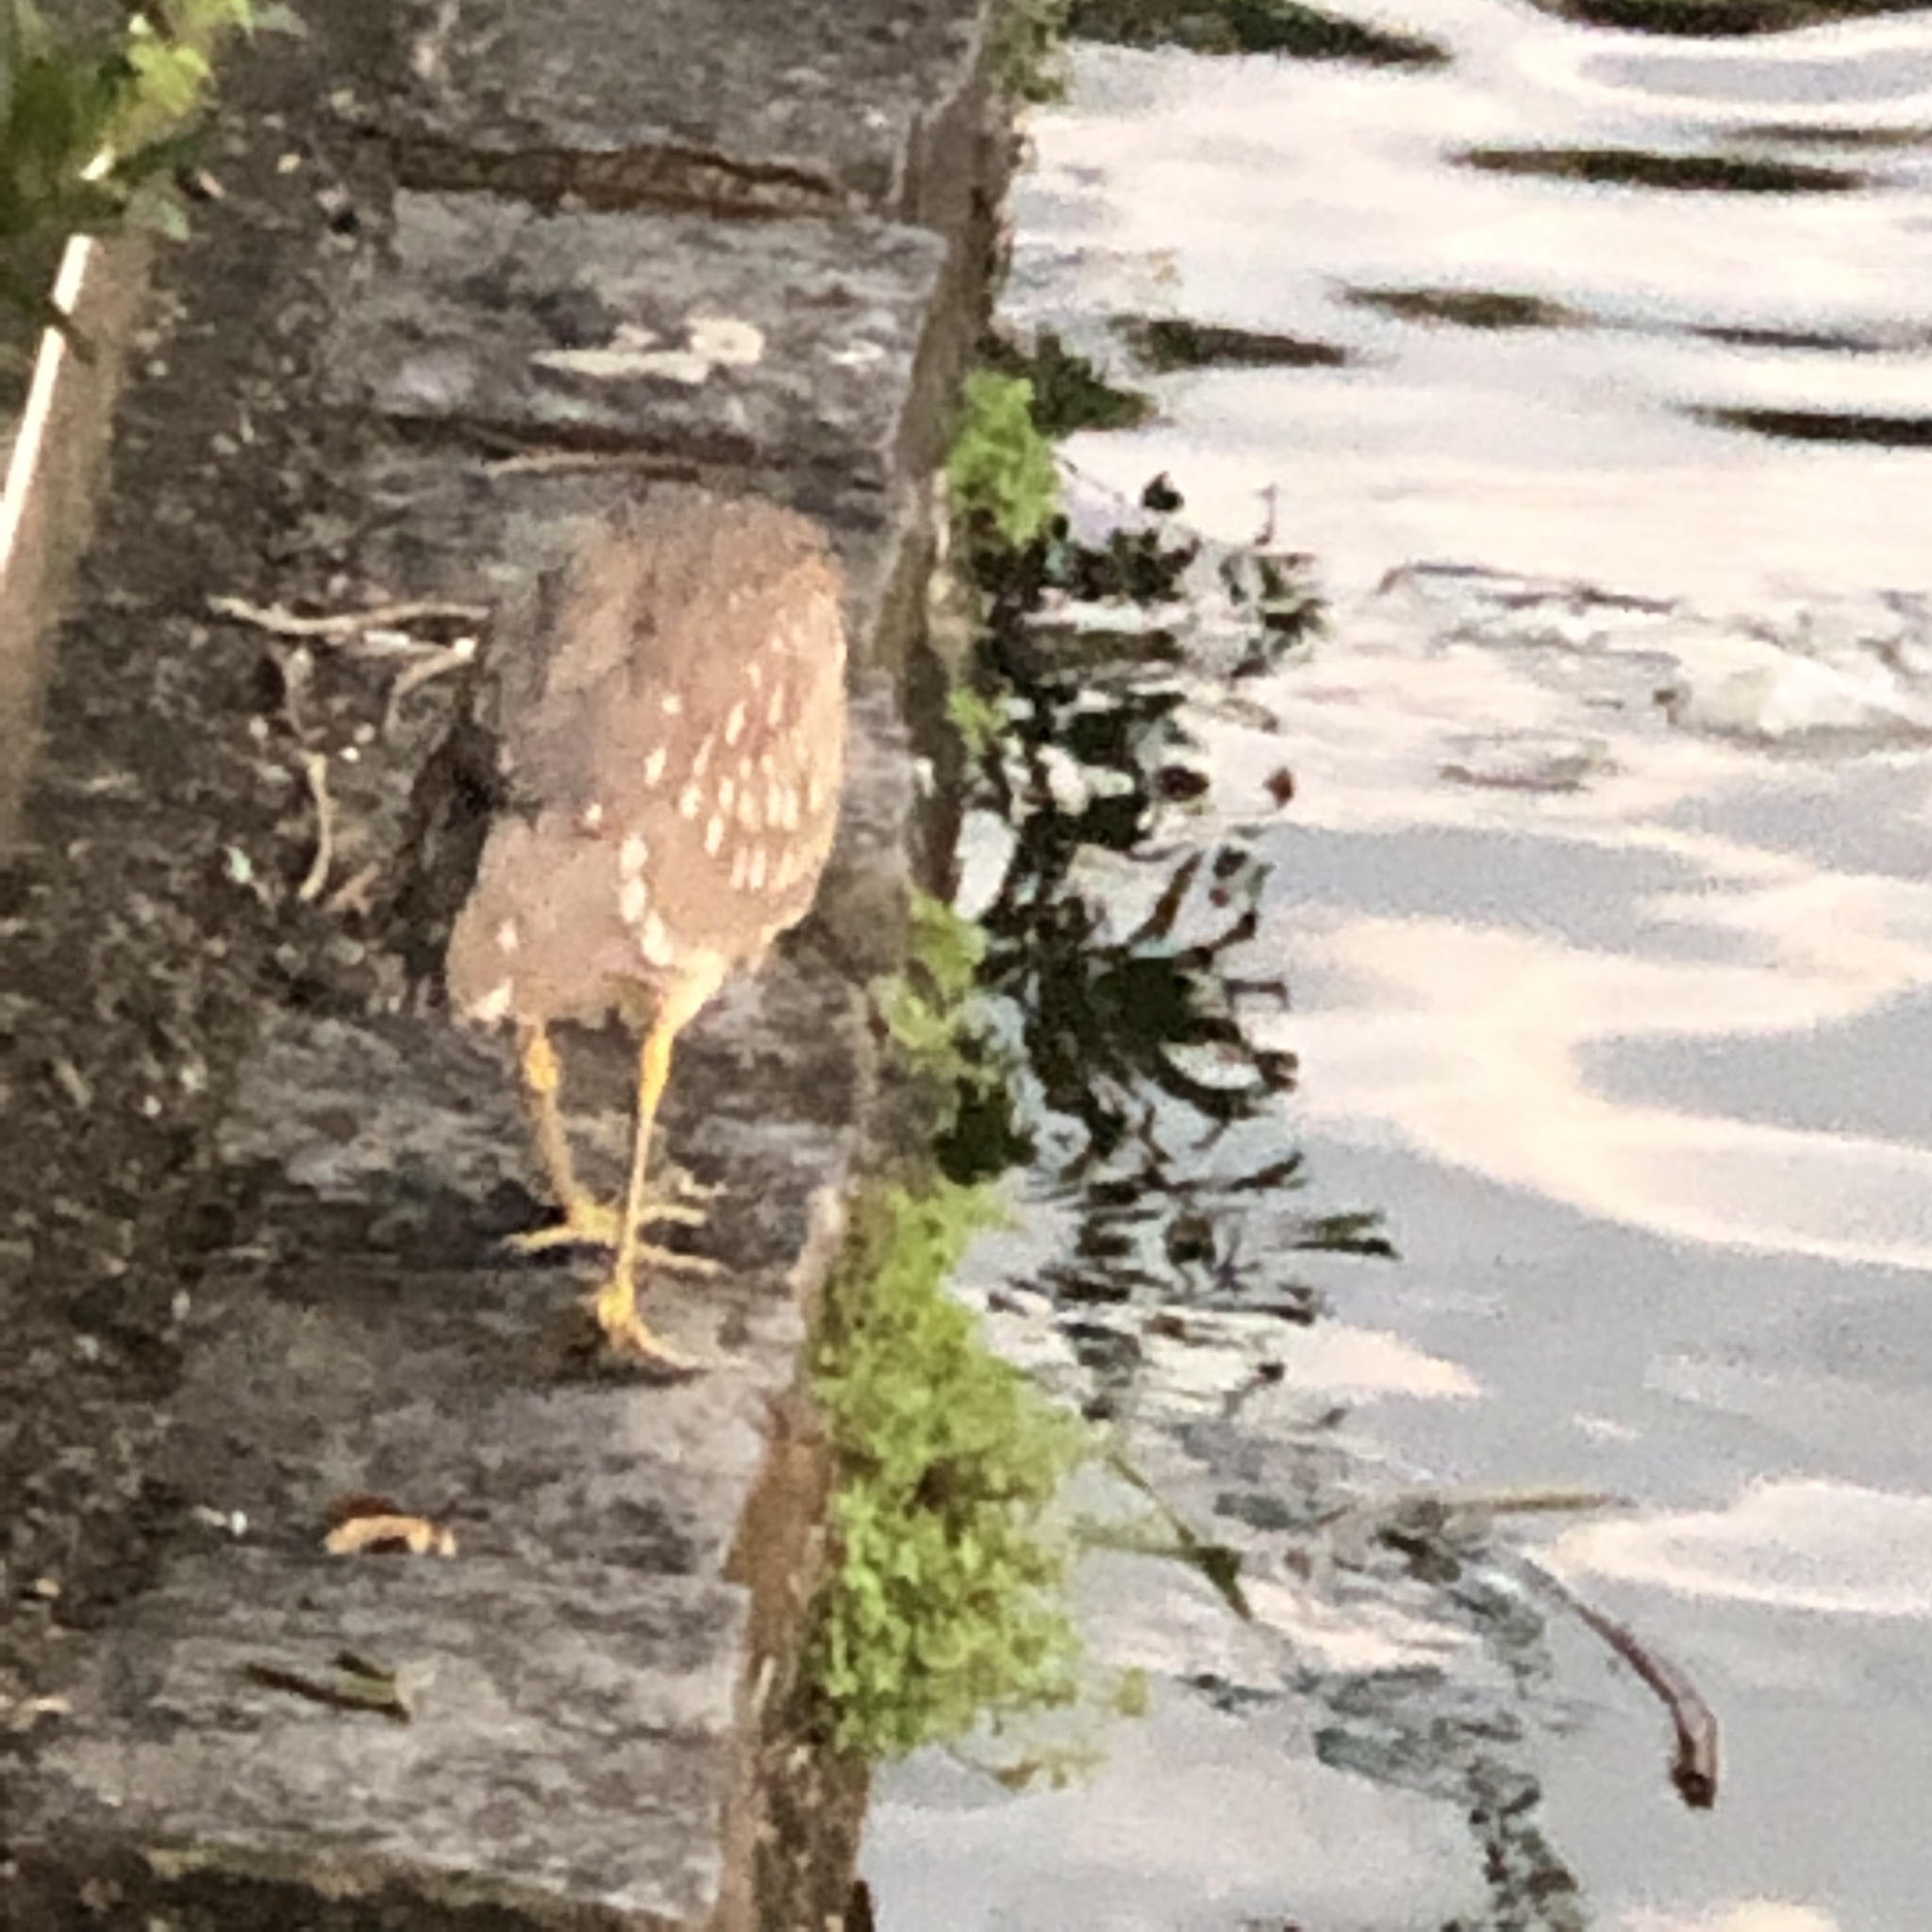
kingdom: Animalia
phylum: Chordata
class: Aves
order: Pelecaniformes
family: Ardeidae
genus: Nycticorax
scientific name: Nycticorax nycticorax
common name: Black-crowned night heron
